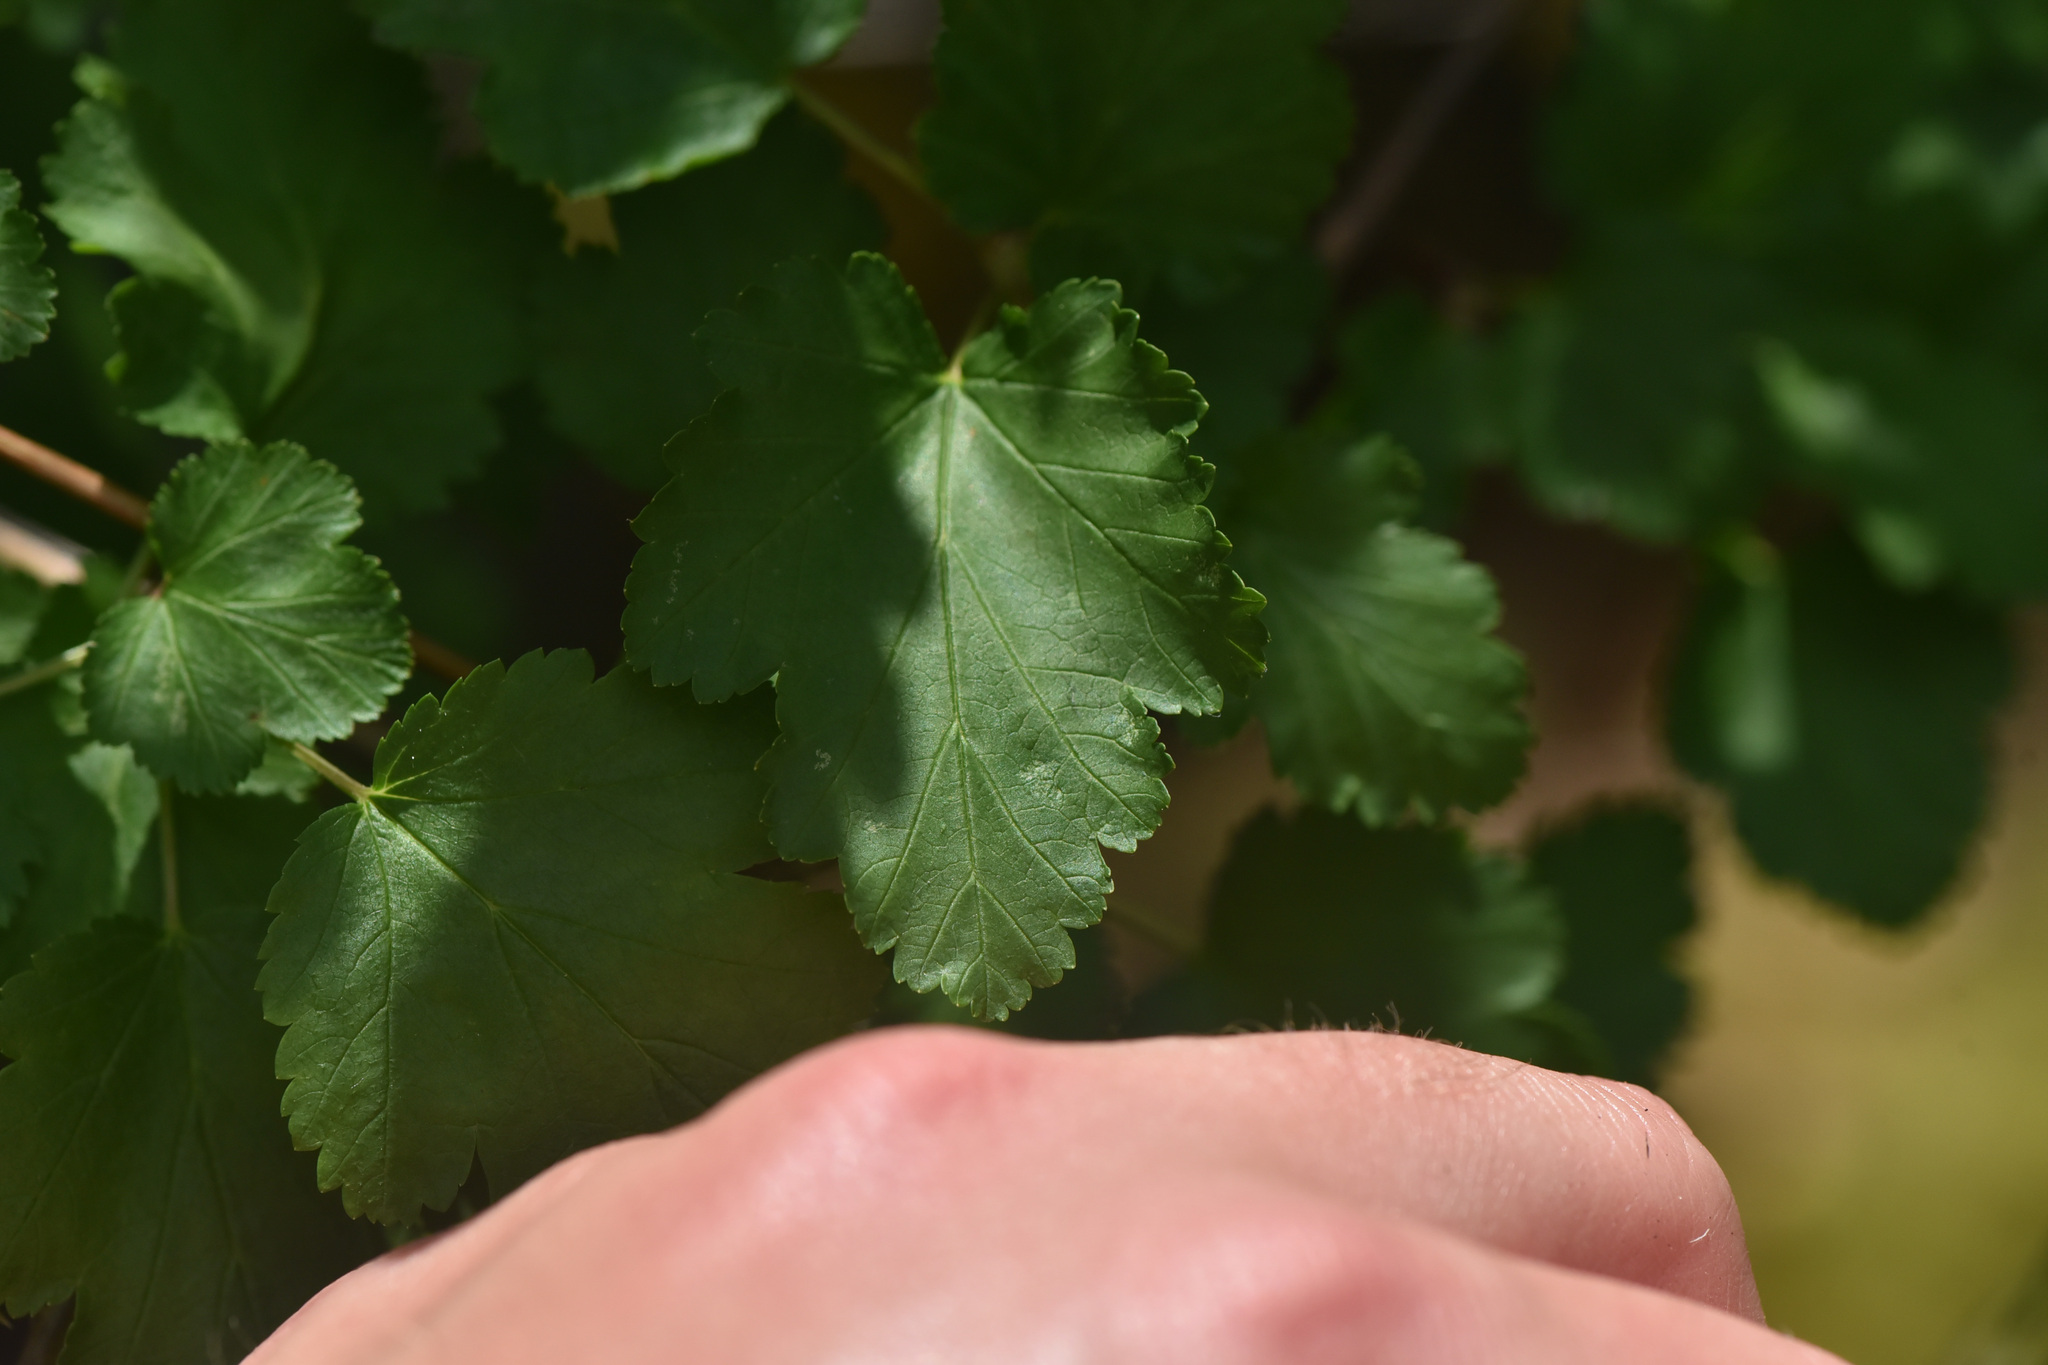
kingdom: Plantae
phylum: Tracheophyta
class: Magnoliopsida
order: Rosales
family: Rosaceae
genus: Physocarpus
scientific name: Physocarpus malvaceus
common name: Mallow ninebark
